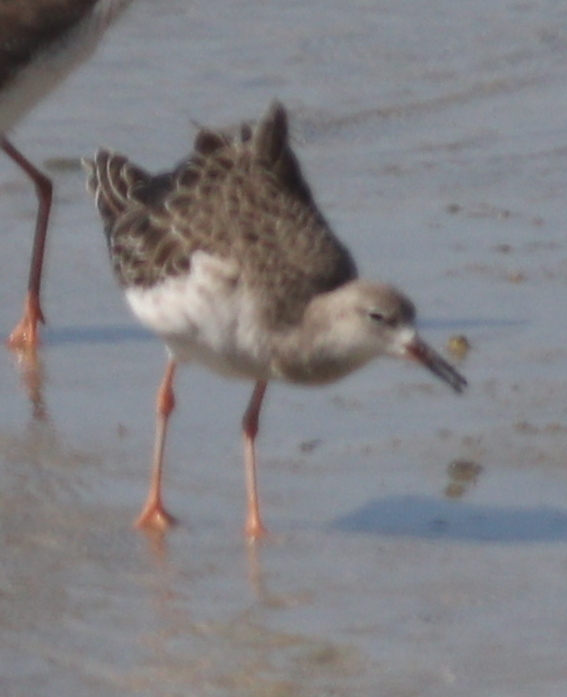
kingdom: Animalia
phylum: Chordata
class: Aves
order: Charadriiformes
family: Scolopacidae
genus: Calidris
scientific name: Calidris pugnax
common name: Ruff
